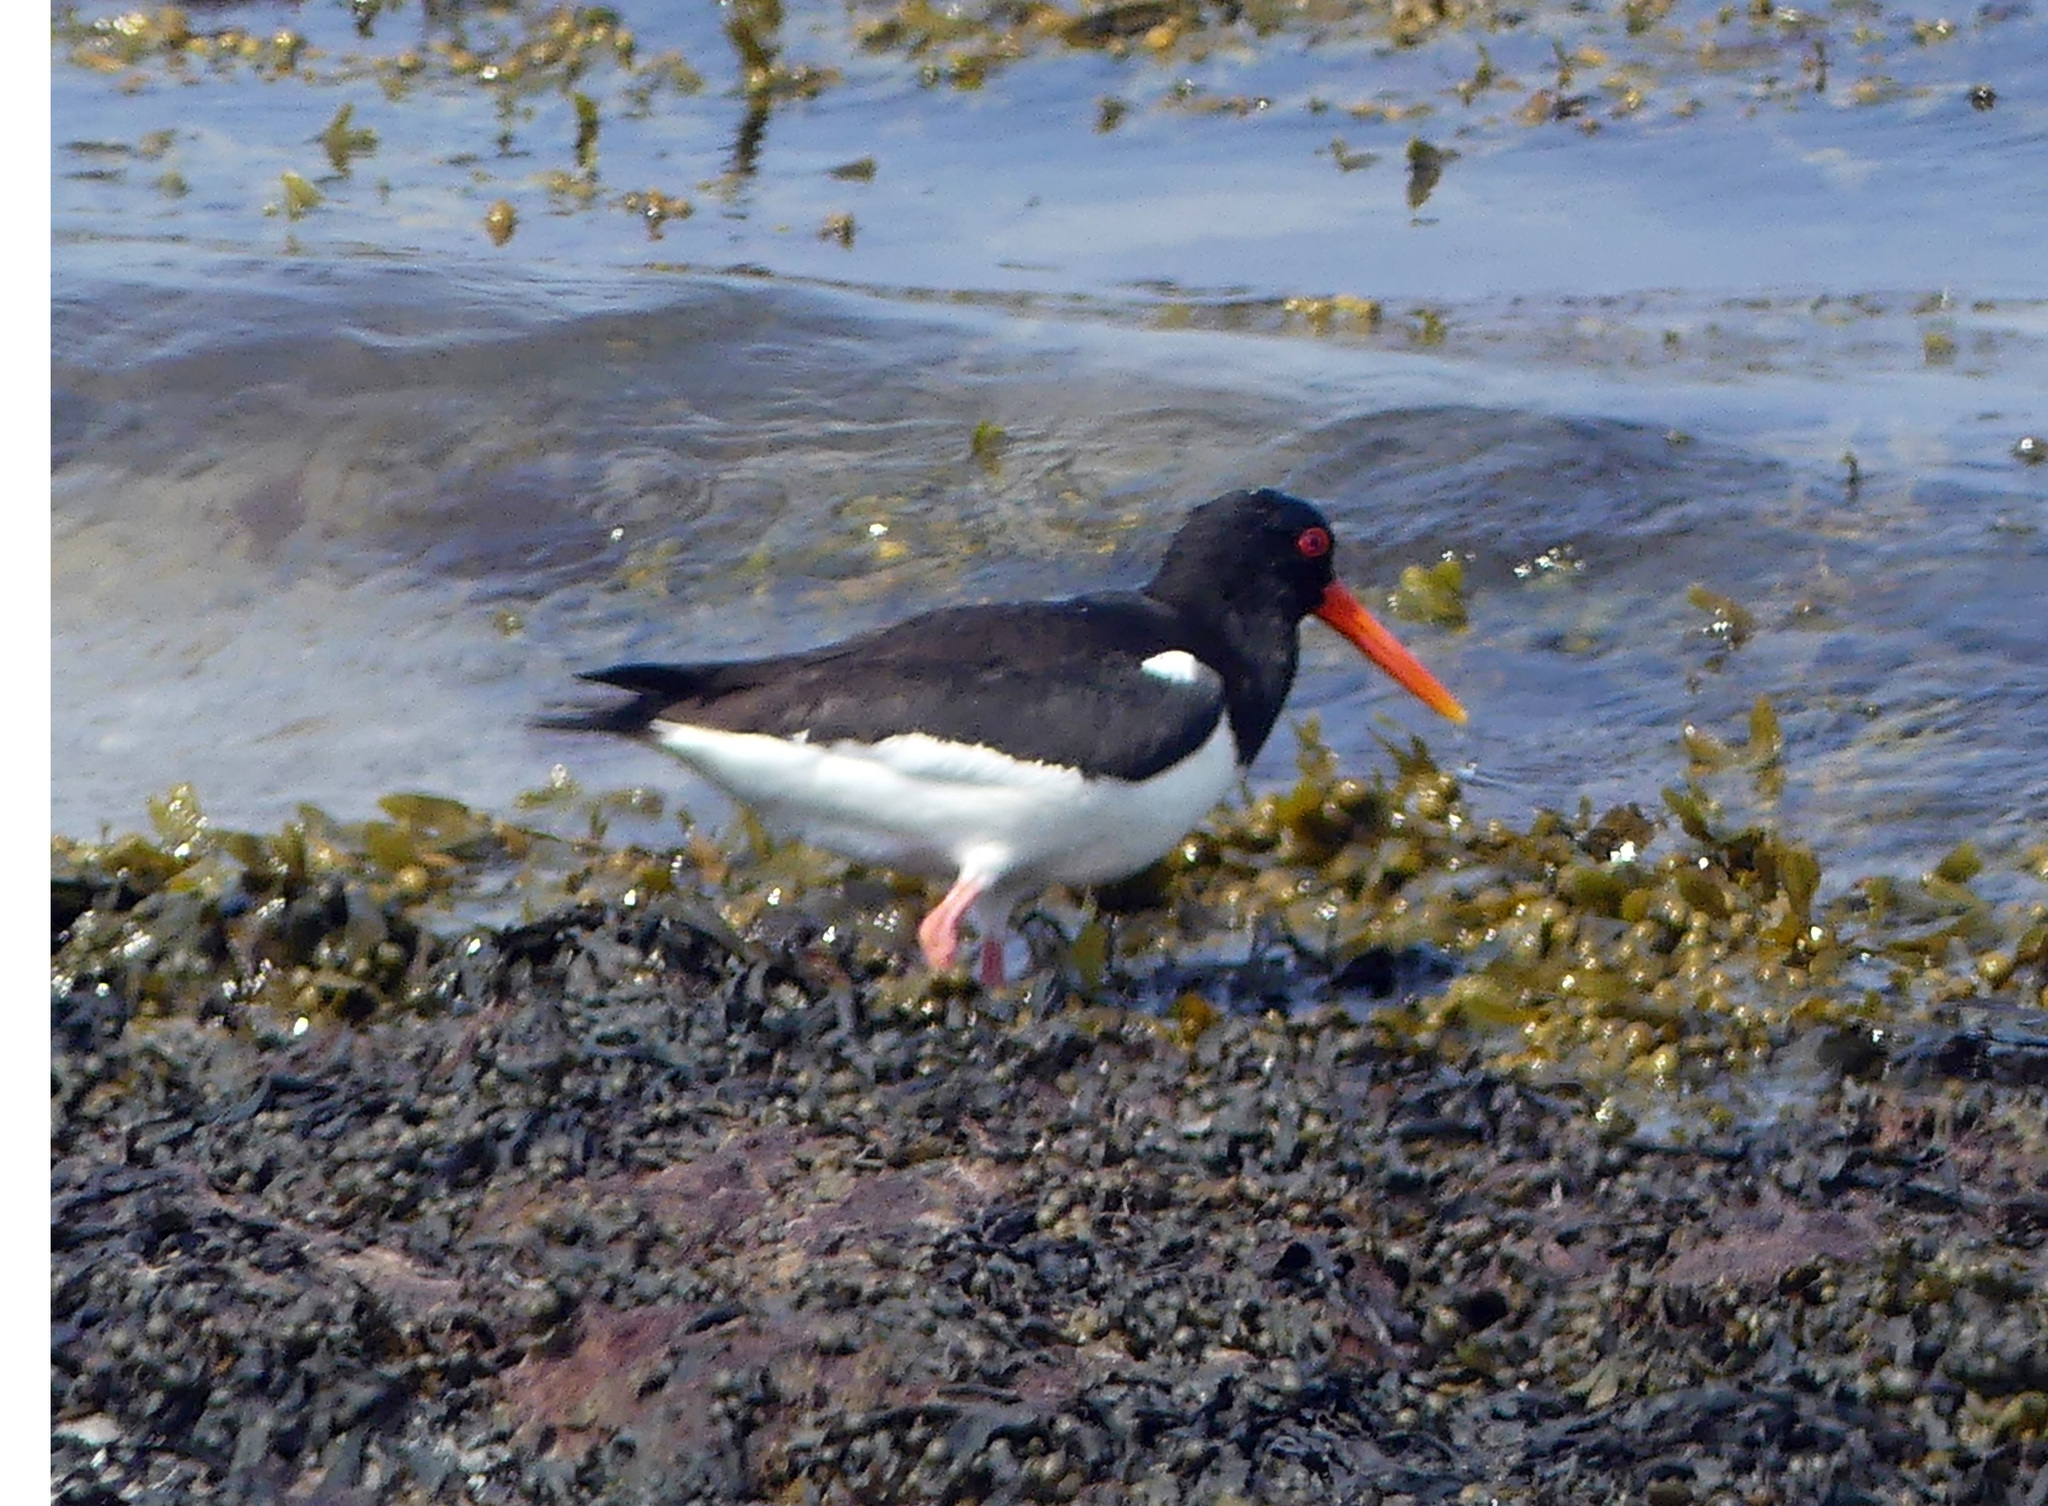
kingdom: Animalia
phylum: Chordata
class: Aves
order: Charadriiformes
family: Haematopodidae
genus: Haematopus
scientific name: Haematopus ostralegus
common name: Eurasian oystercatcher
